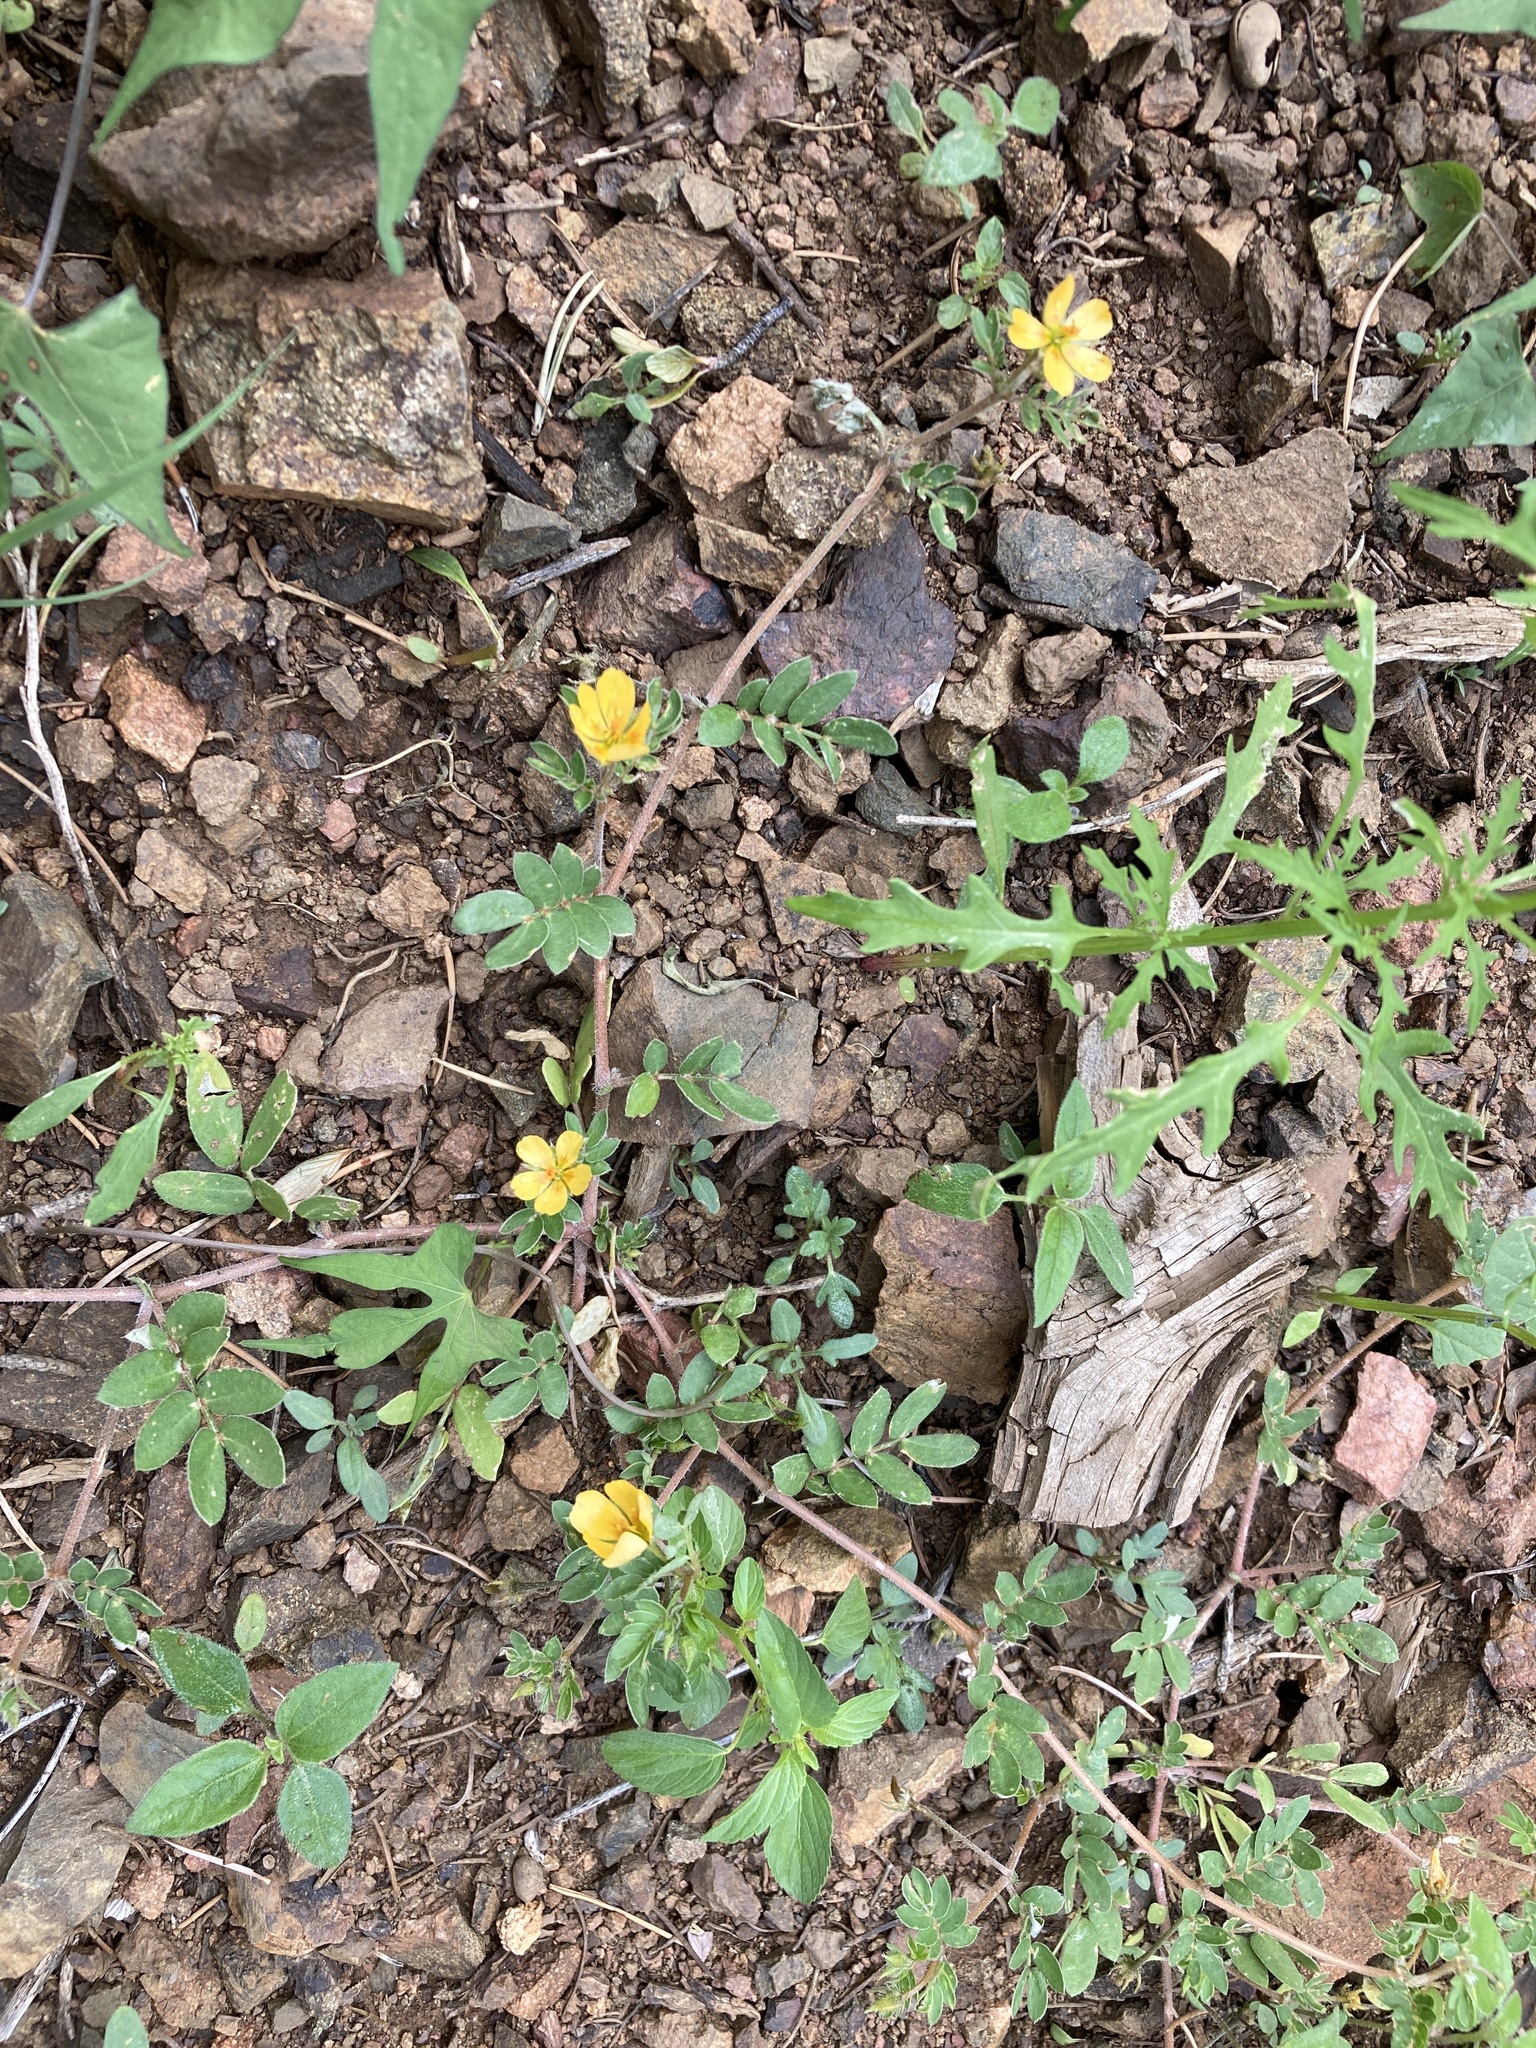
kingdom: Plantae
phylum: Tracheophyta
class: Magnoliopsida
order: Zygophyllales
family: Zygophyllaceae
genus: Kallstroemia
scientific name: Kallstroemia parviflora
